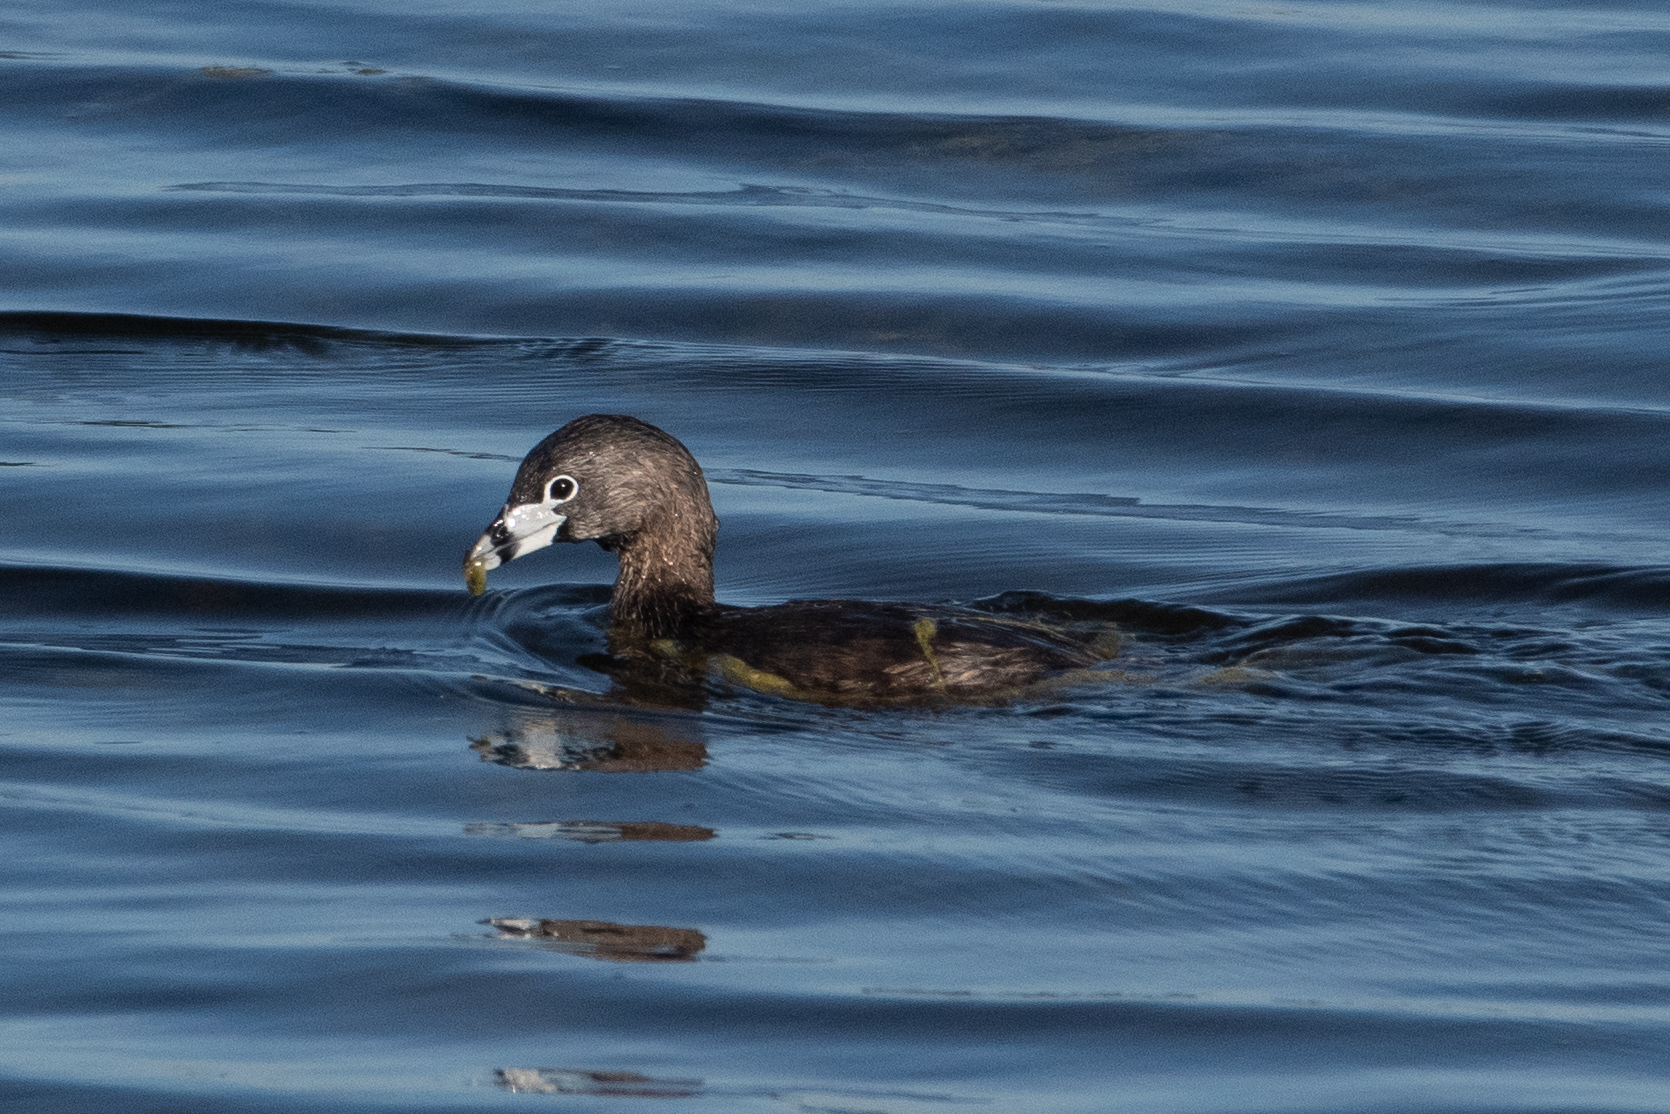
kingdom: Animalia
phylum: Chordata
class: Aves
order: Podicipediformes
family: Podicipedidae
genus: Podilymbus
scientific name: Podilymbus podiceps
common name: Pied-billed grebe
